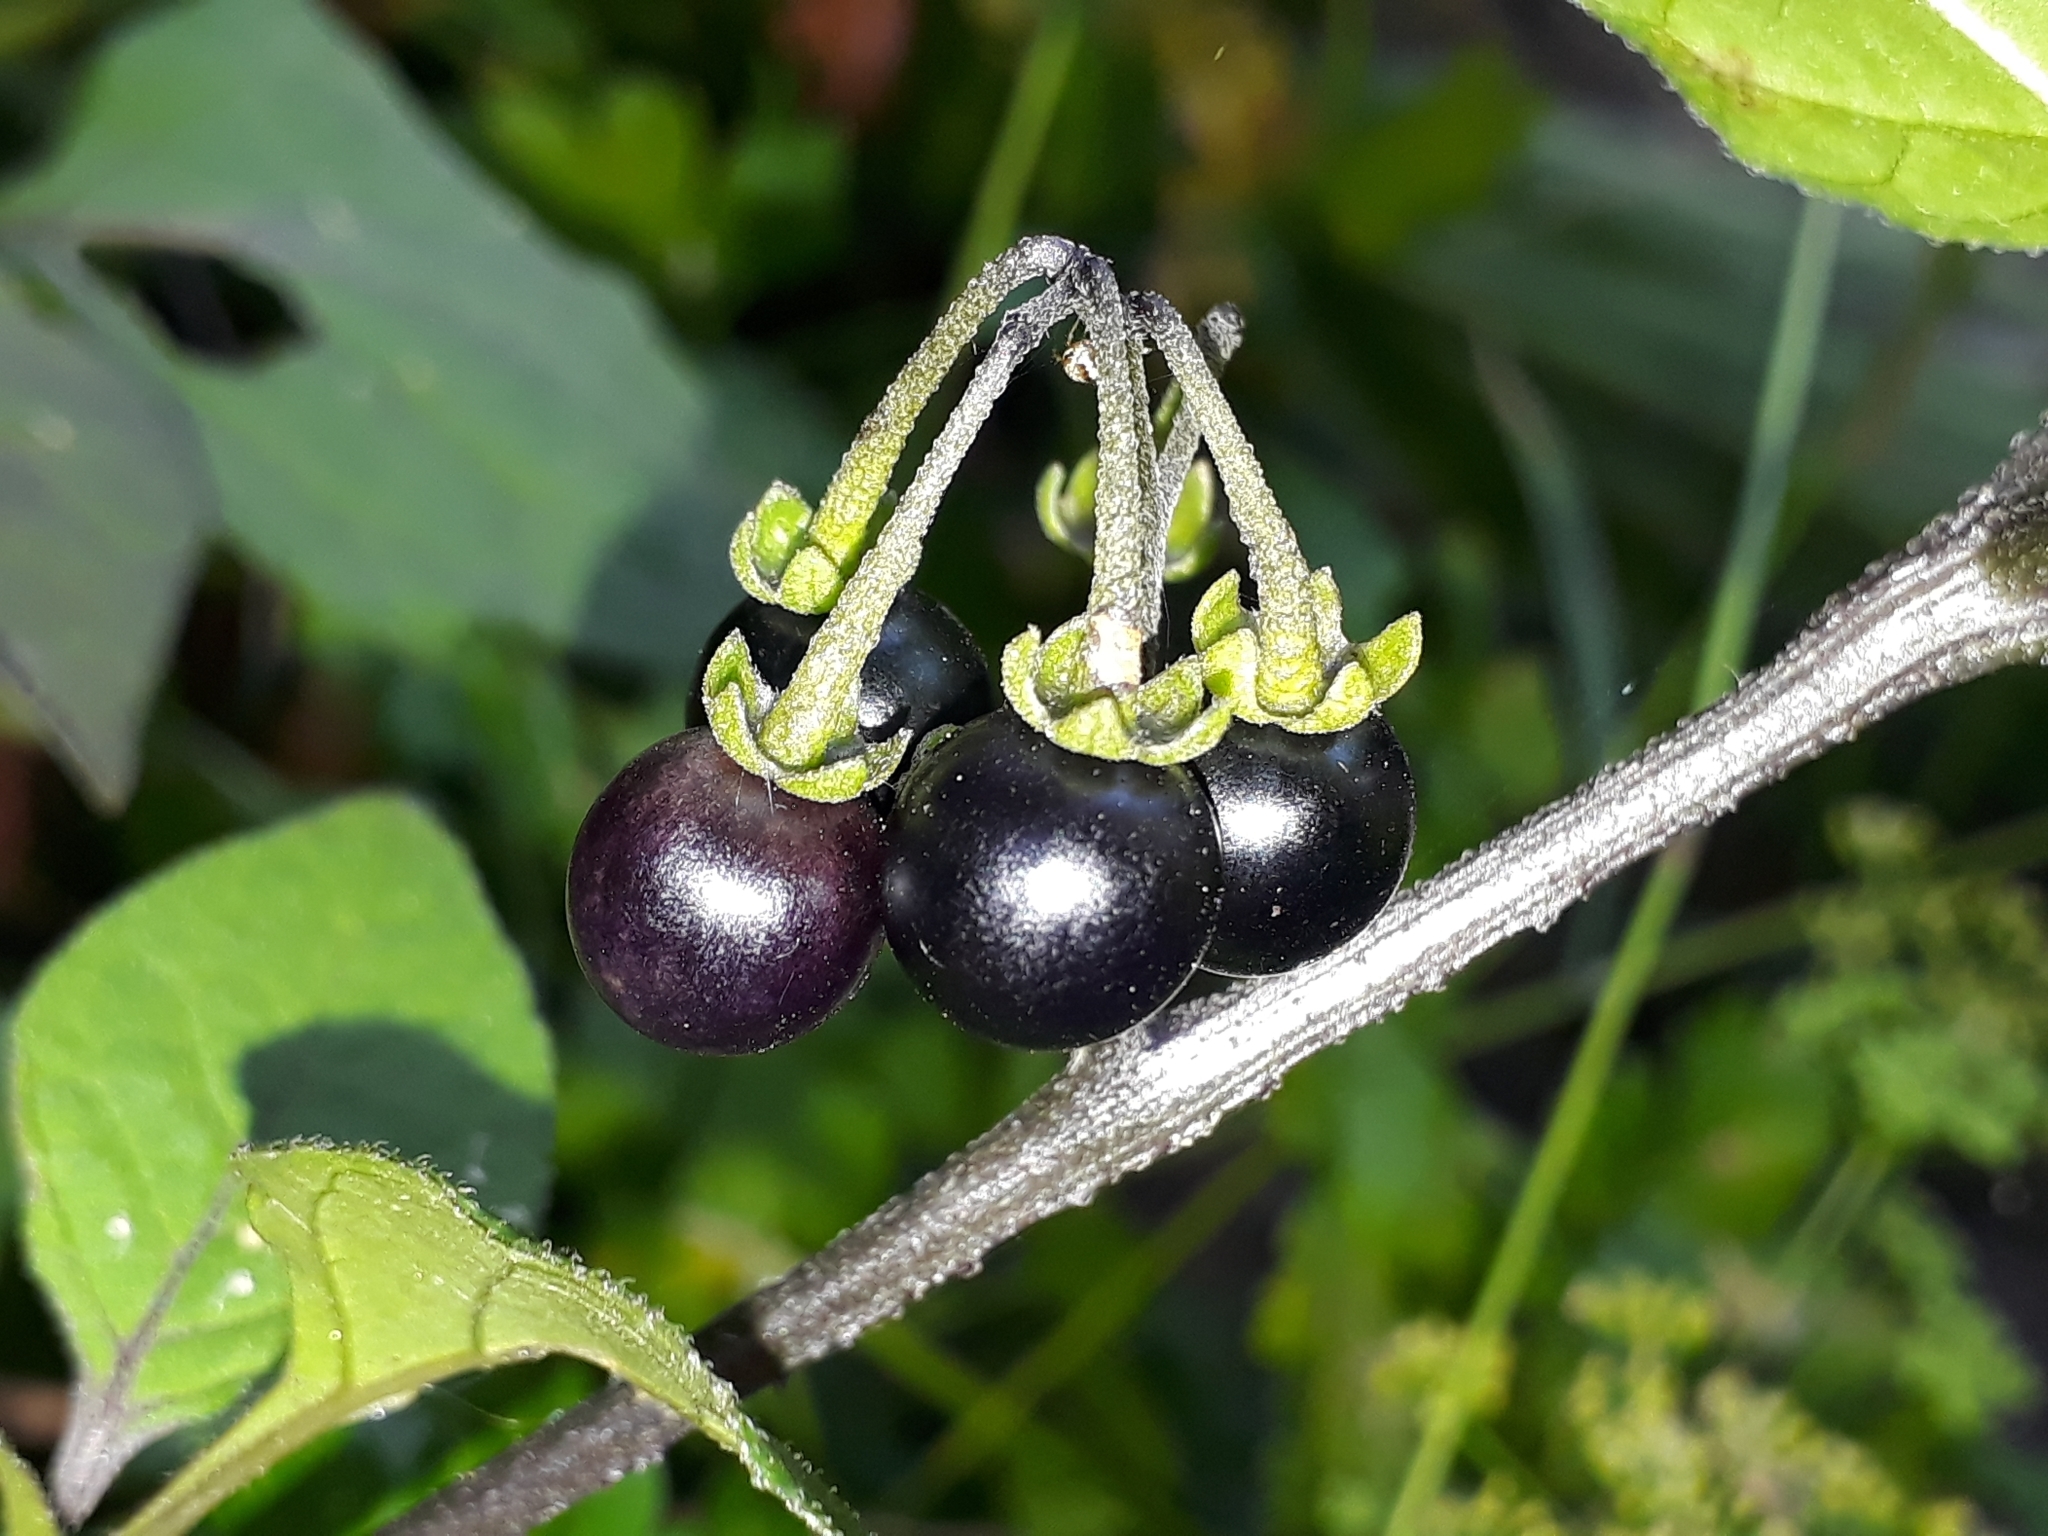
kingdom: Plantae
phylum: Tracheophyta
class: Magnoliopsida
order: Solanales
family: Solanaceae
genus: Solanum
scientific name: Solanum nigrum
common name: Black nightshade
